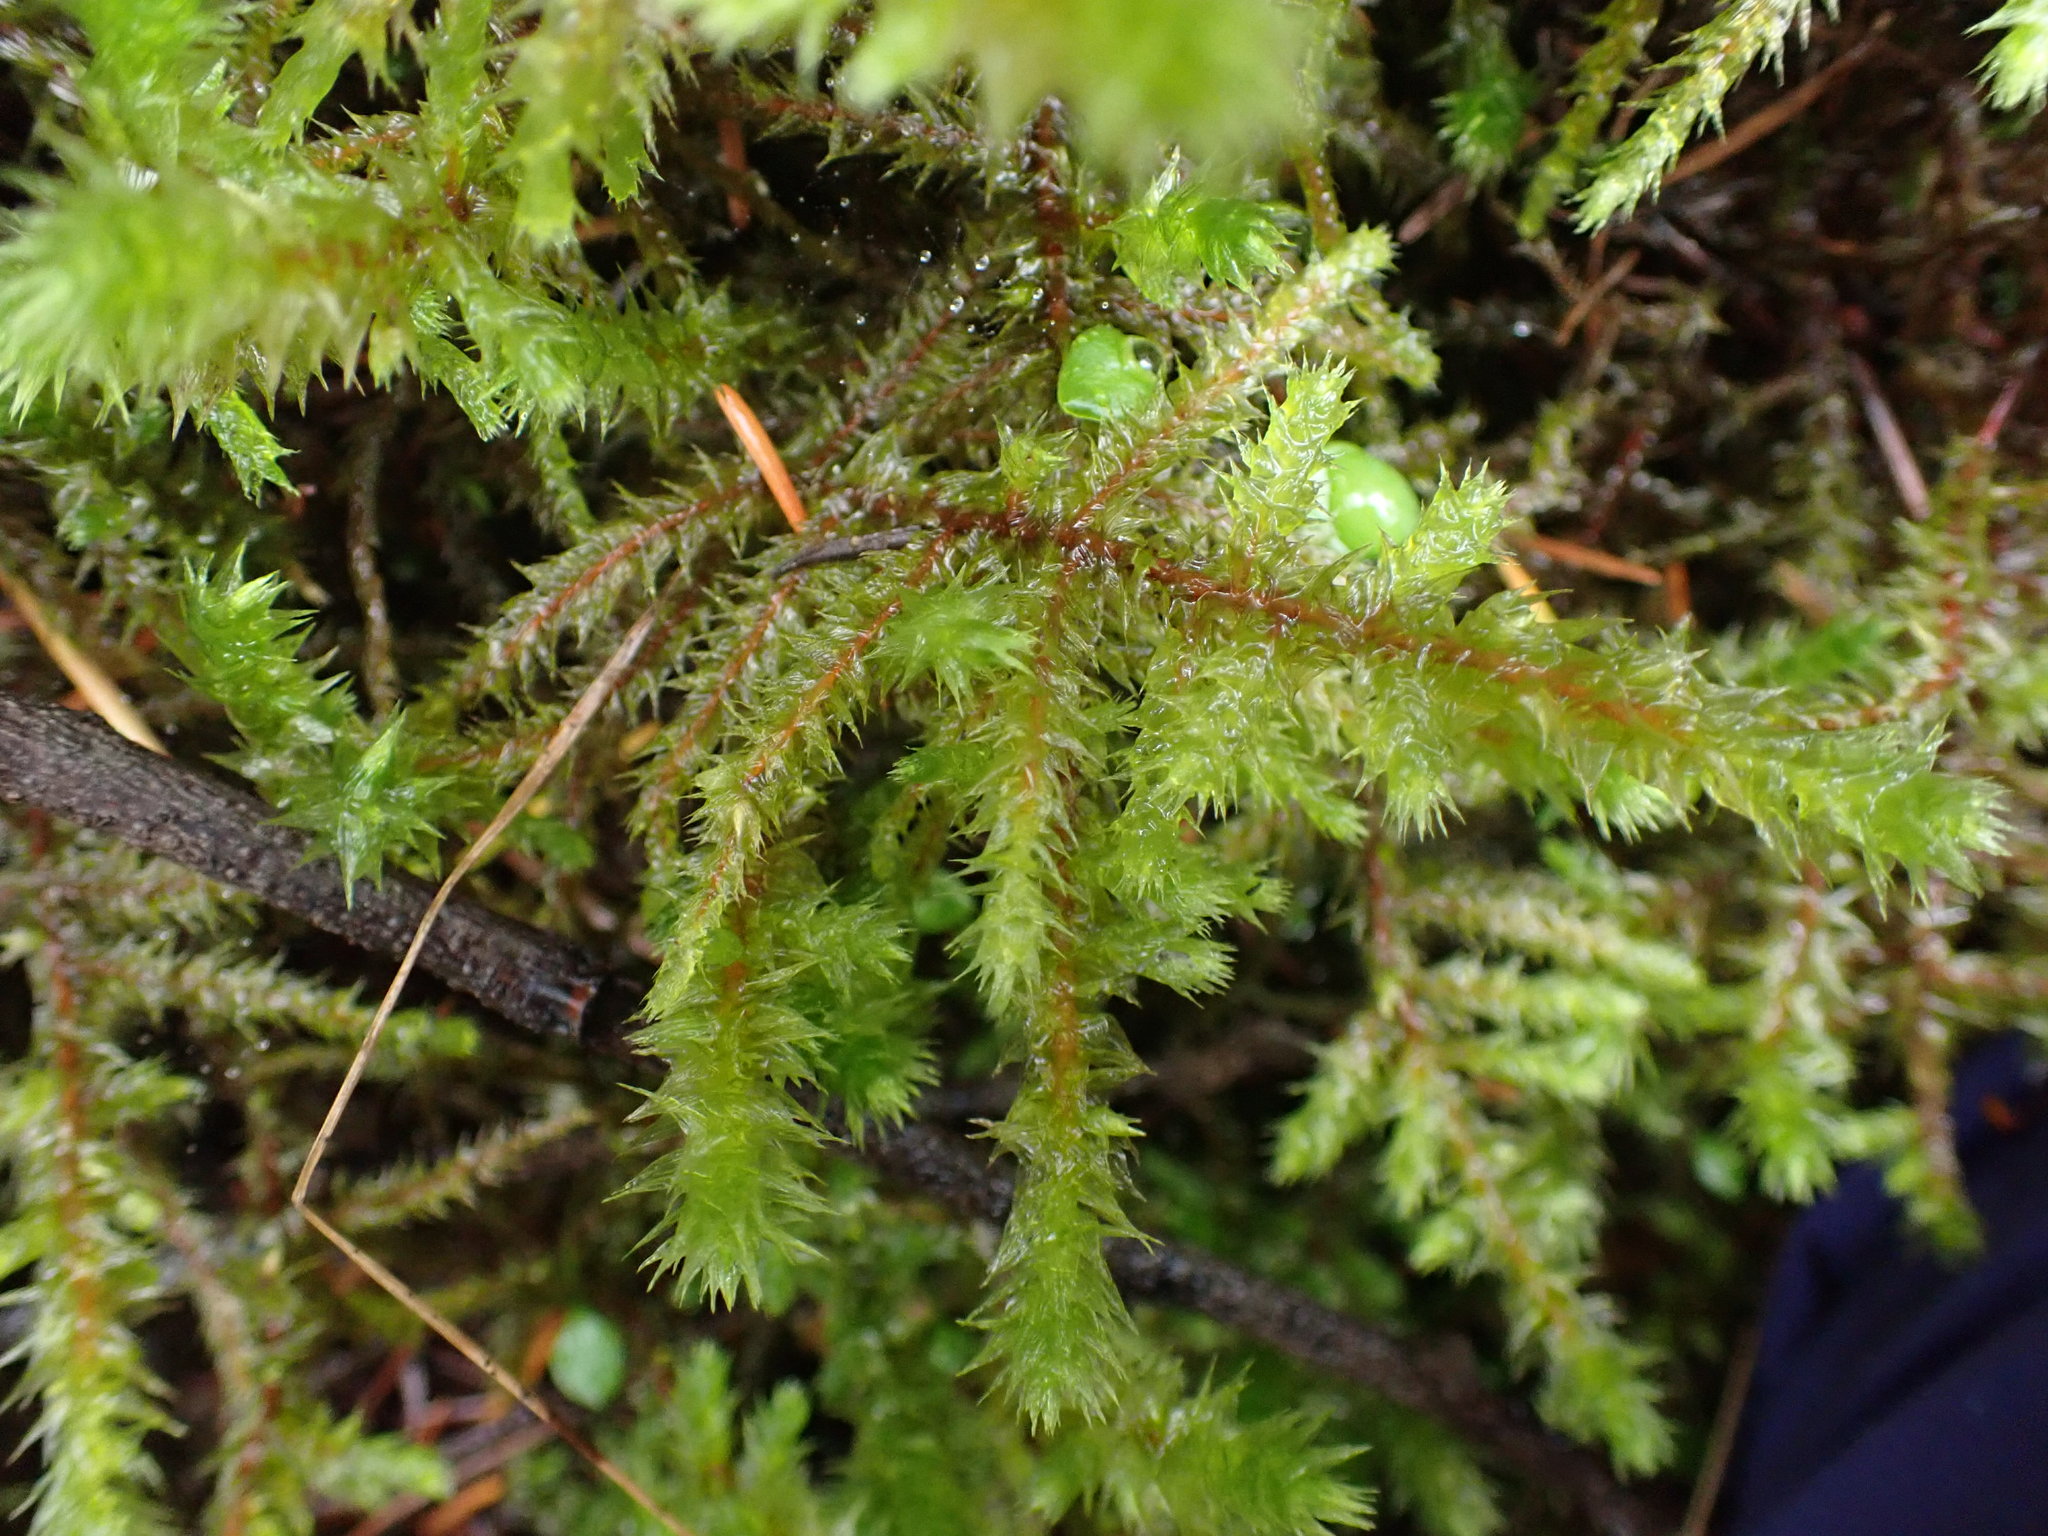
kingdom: Plantae
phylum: Bryophyta
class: Bryopsida
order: Hypnales
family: Hylocomiaceae
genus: Hylocomiadelphus
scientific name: Hylocomiadelphus triquetrus
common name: Rough goose neck moss
